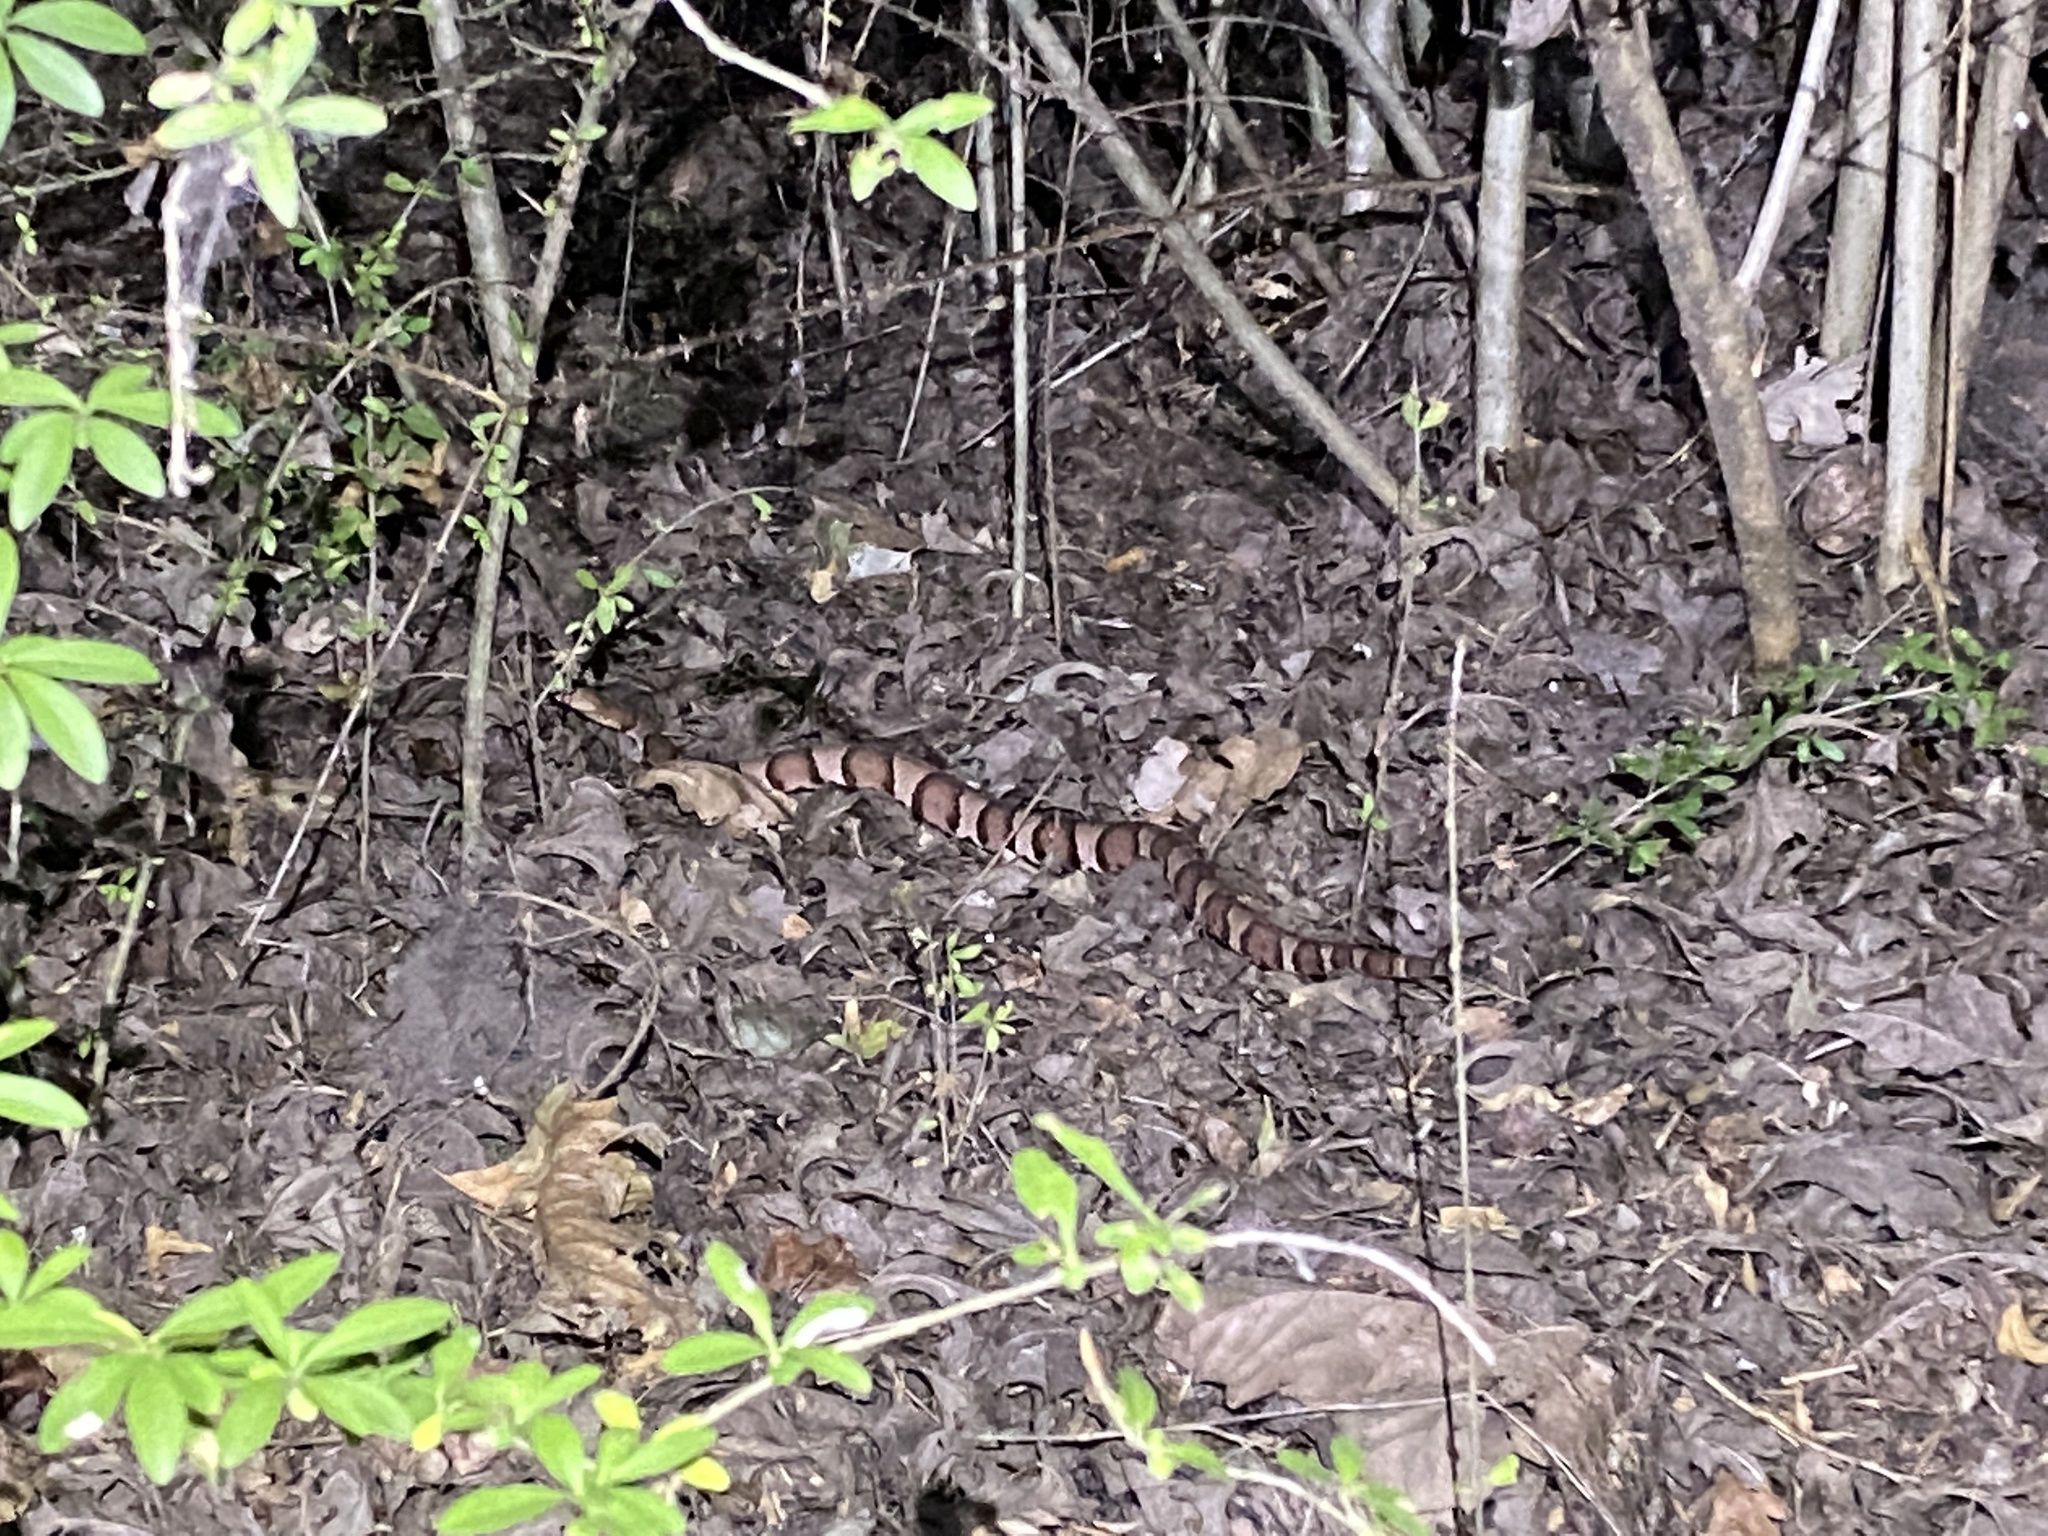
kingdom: Animalia
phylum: Chordata
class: Squamata
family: Viperidae
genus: Agkistrodon
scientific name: Agkistrodon laticinctus
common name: Broad-banded copperhead
